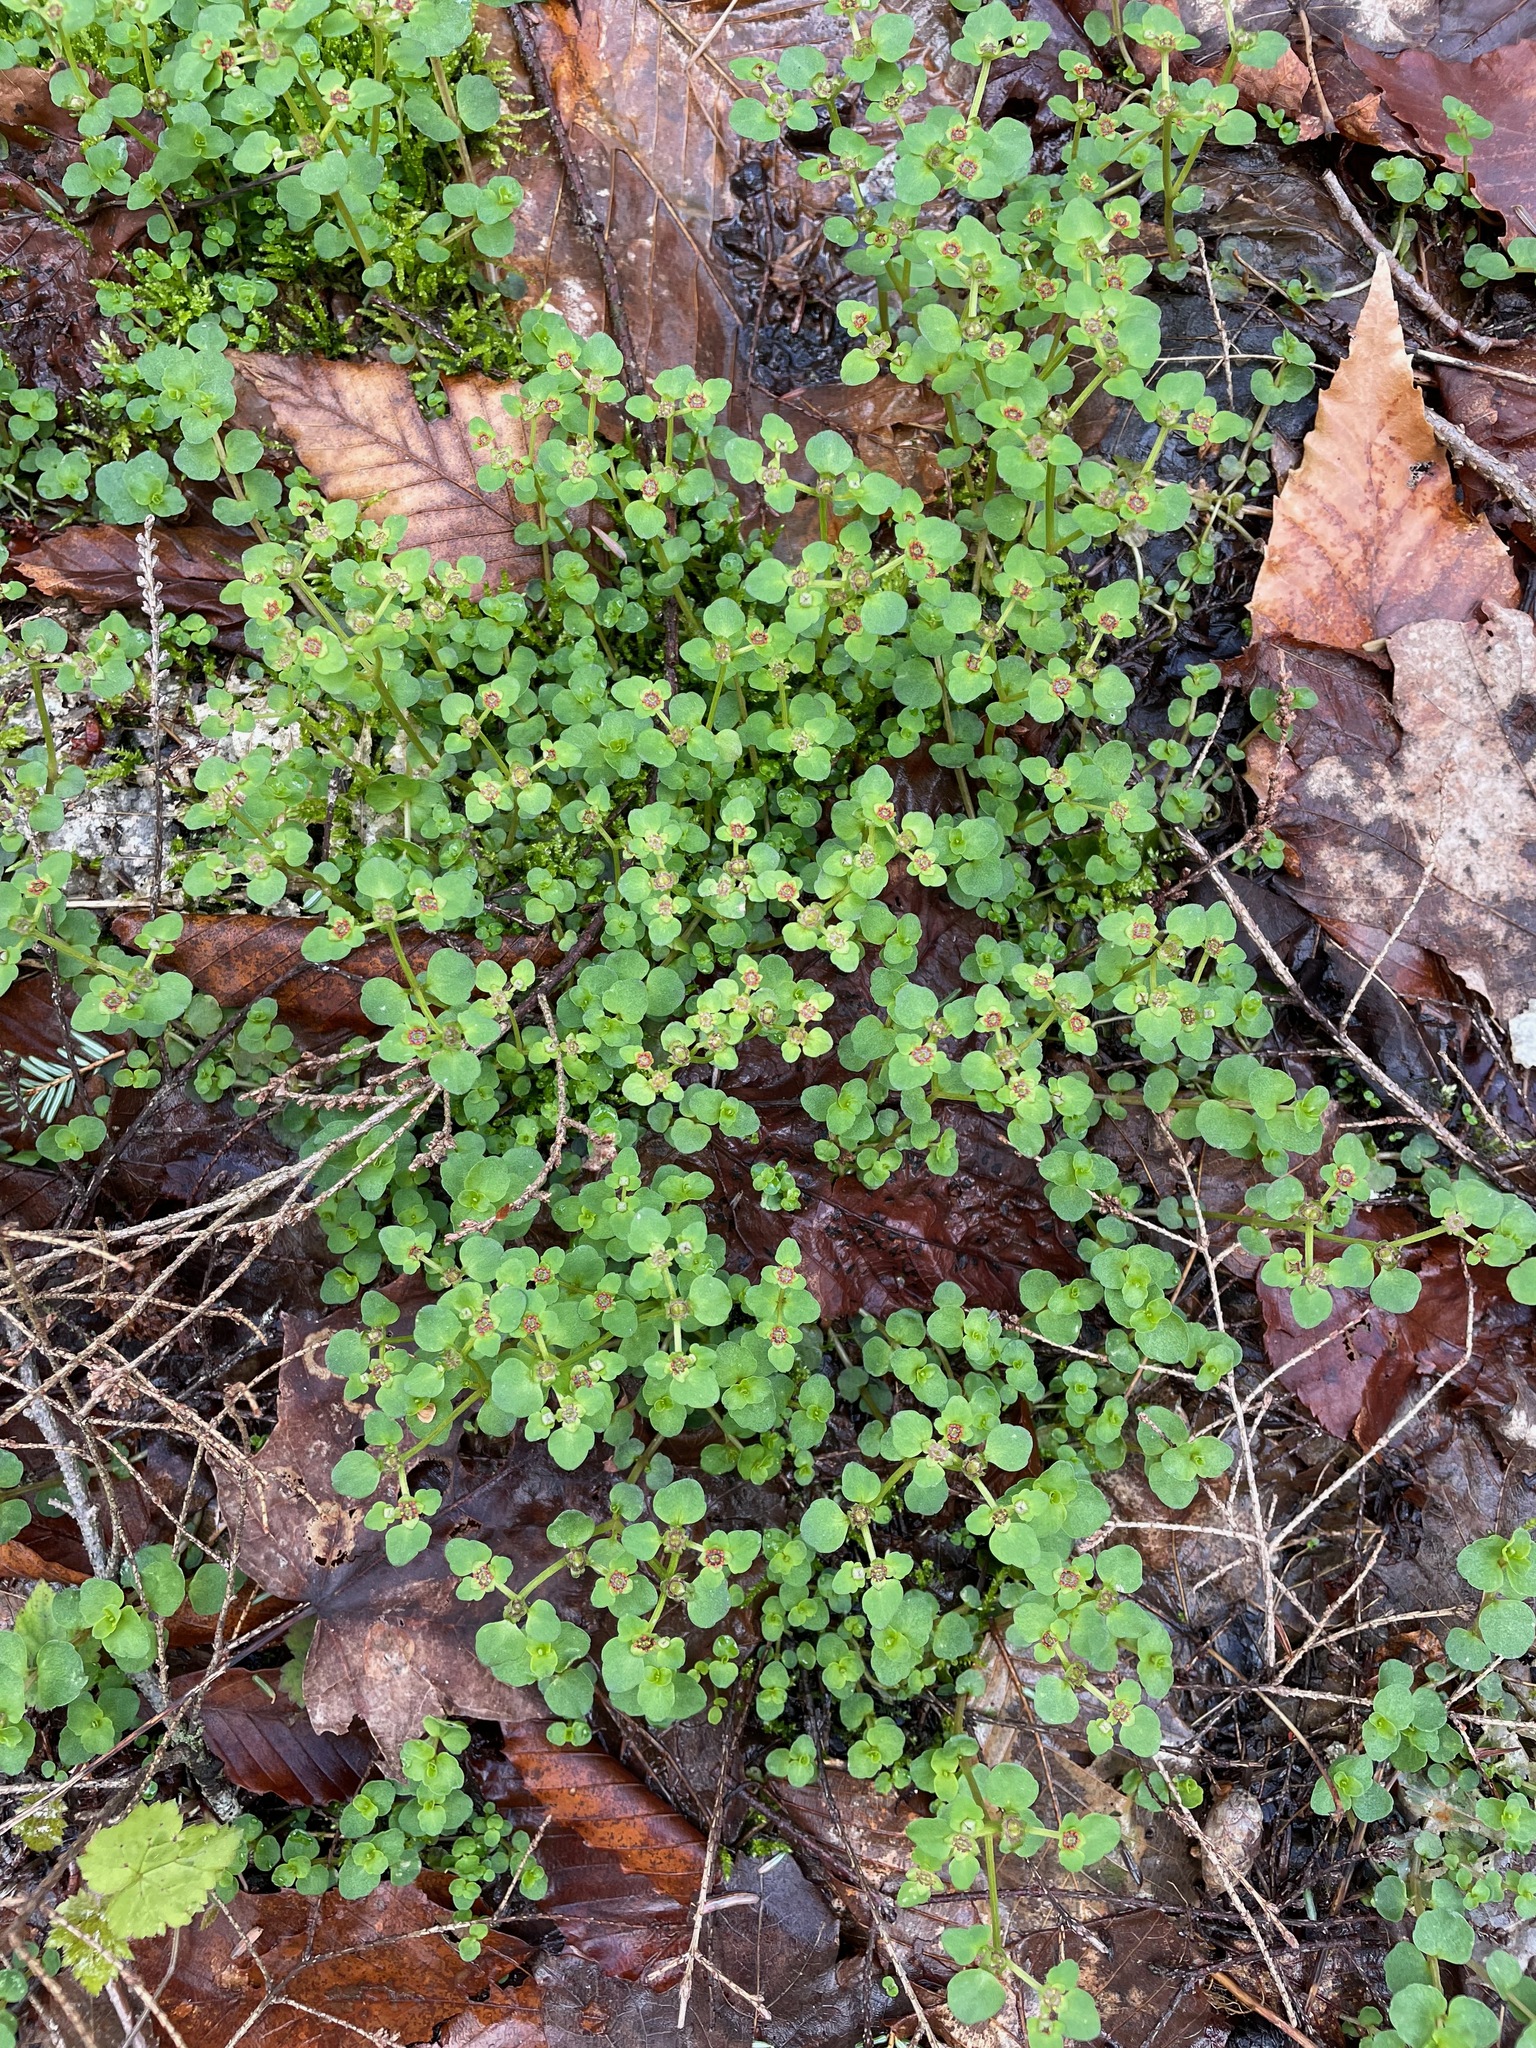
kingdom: Plantae
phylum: Tracheophyta
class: Magnoliopsida
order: Saxifragales
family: Saxifragaceae
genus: Chrysosplenium
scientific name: Chrysosplenium americanum
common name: American golden-saxifrage
